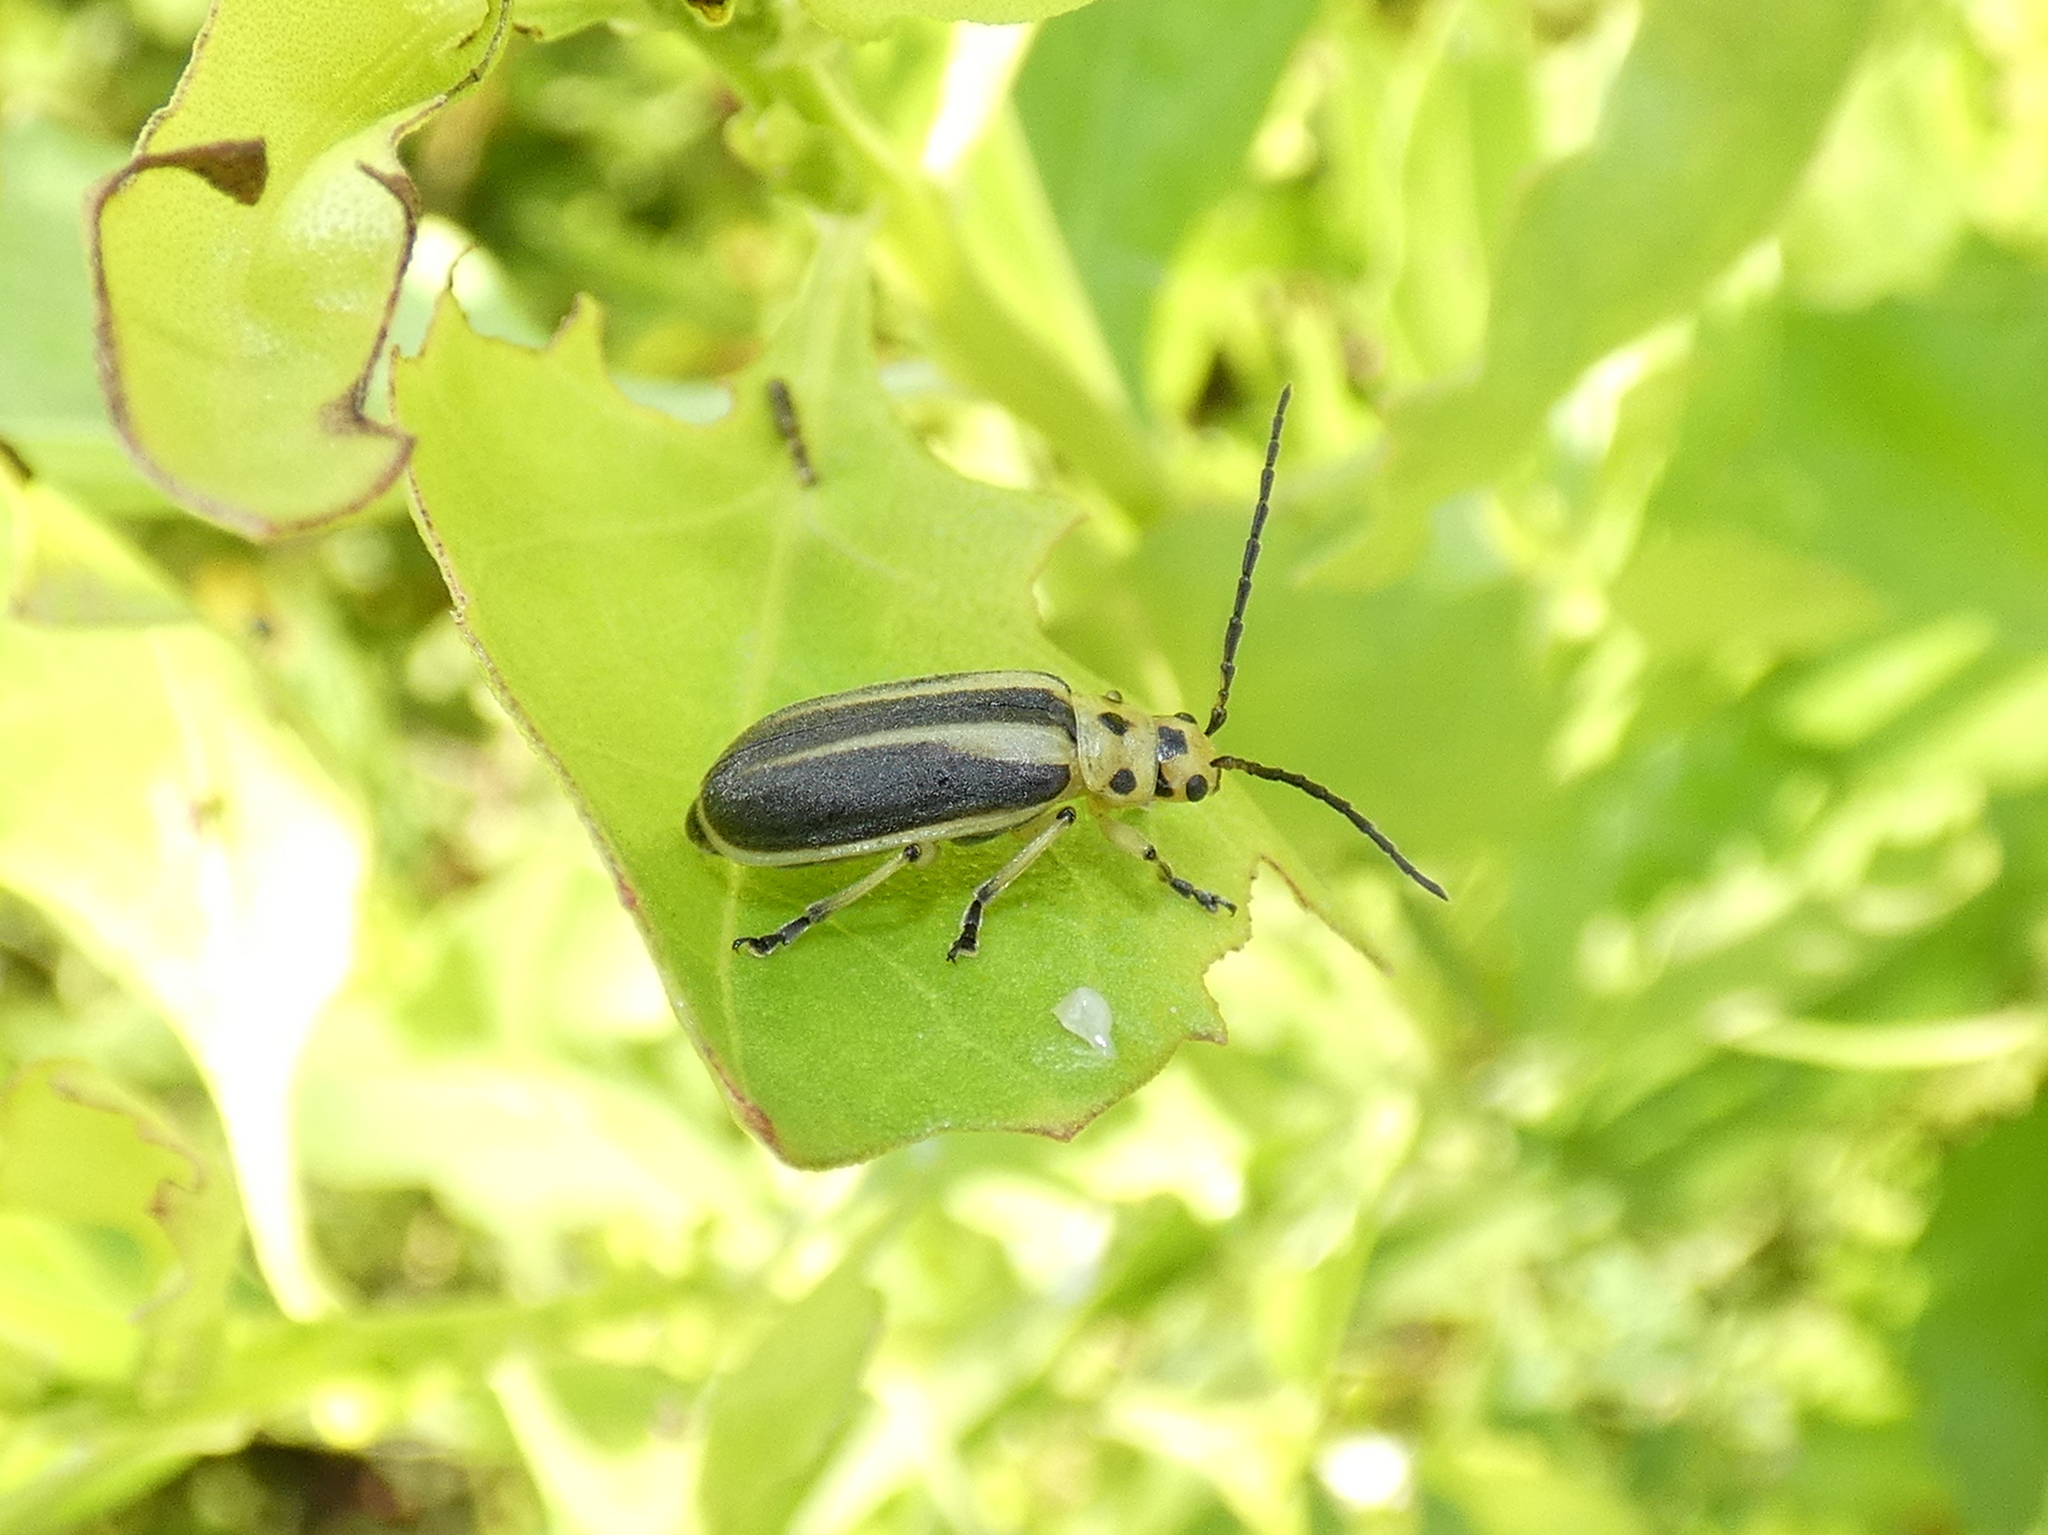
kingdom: Animalia
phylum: Arthropoda
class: Insecta
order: Coleoptera
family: Chrysomelidae
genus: Trirhabda
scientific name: Trirhabda bacharidis
